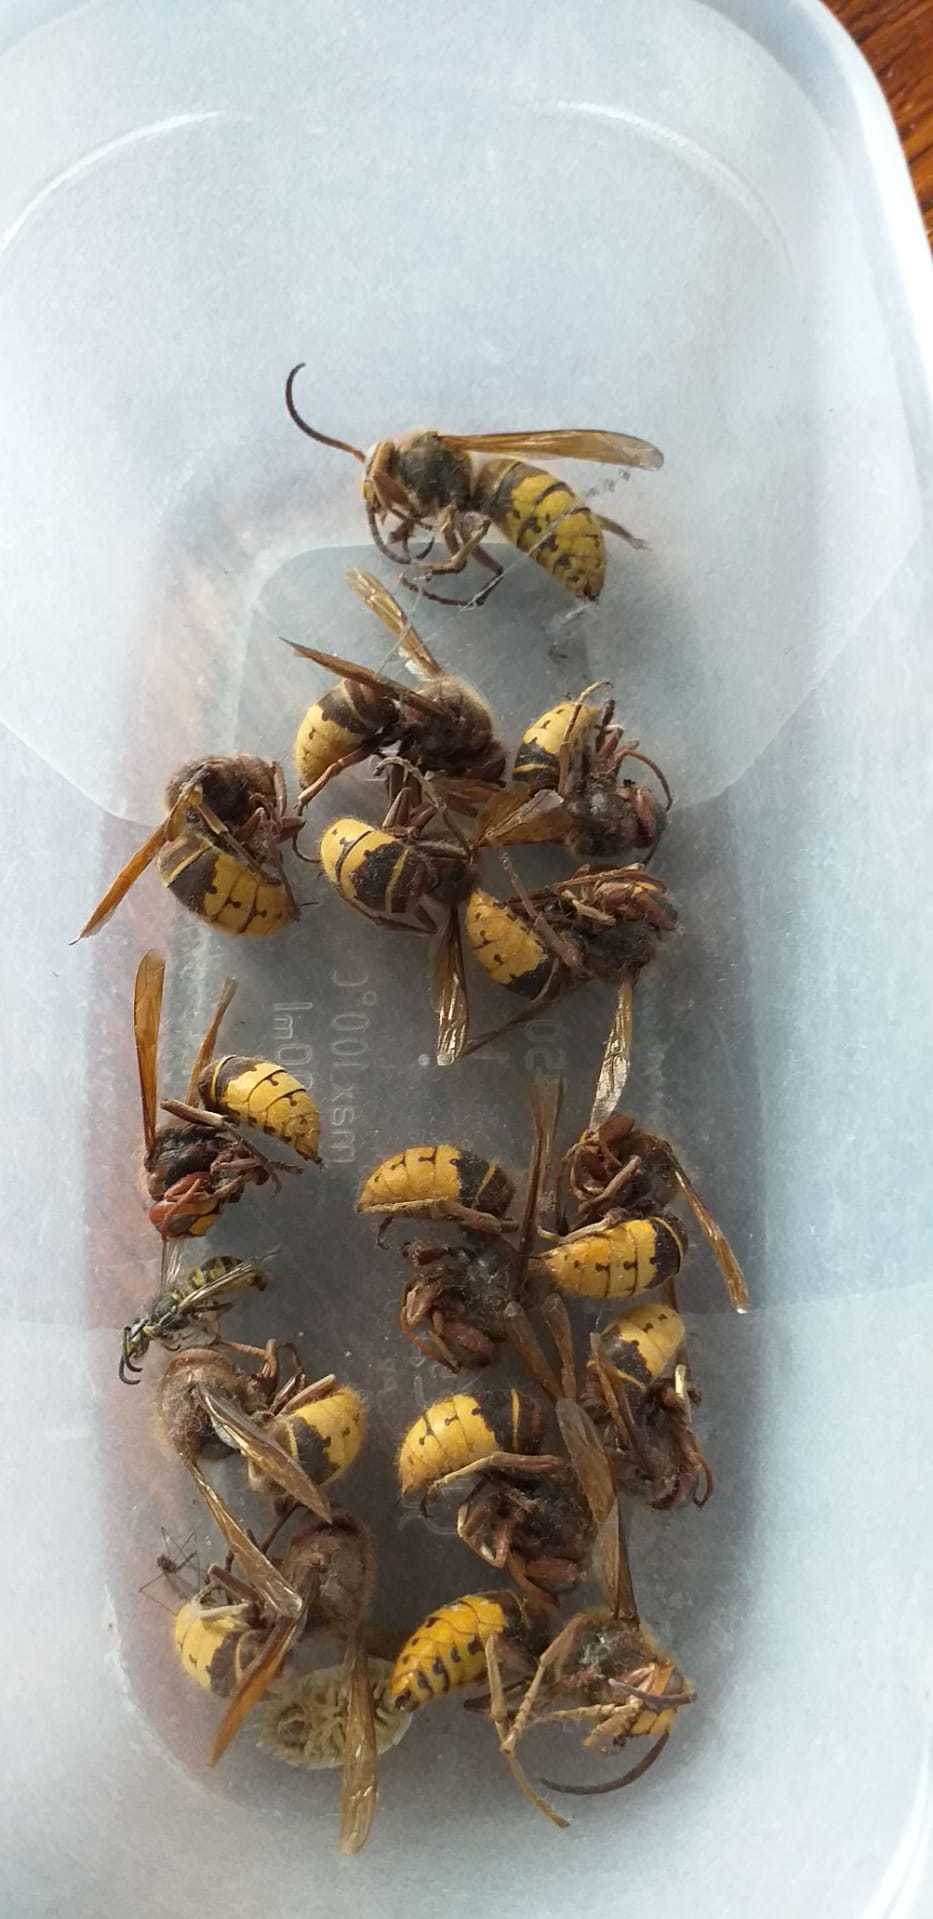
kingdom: Animalia
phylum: Arthropoda
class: Insecta
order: Hymenoptera
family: Vespidae
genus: Vespa
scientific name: Vespa crabro
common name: Hornet
